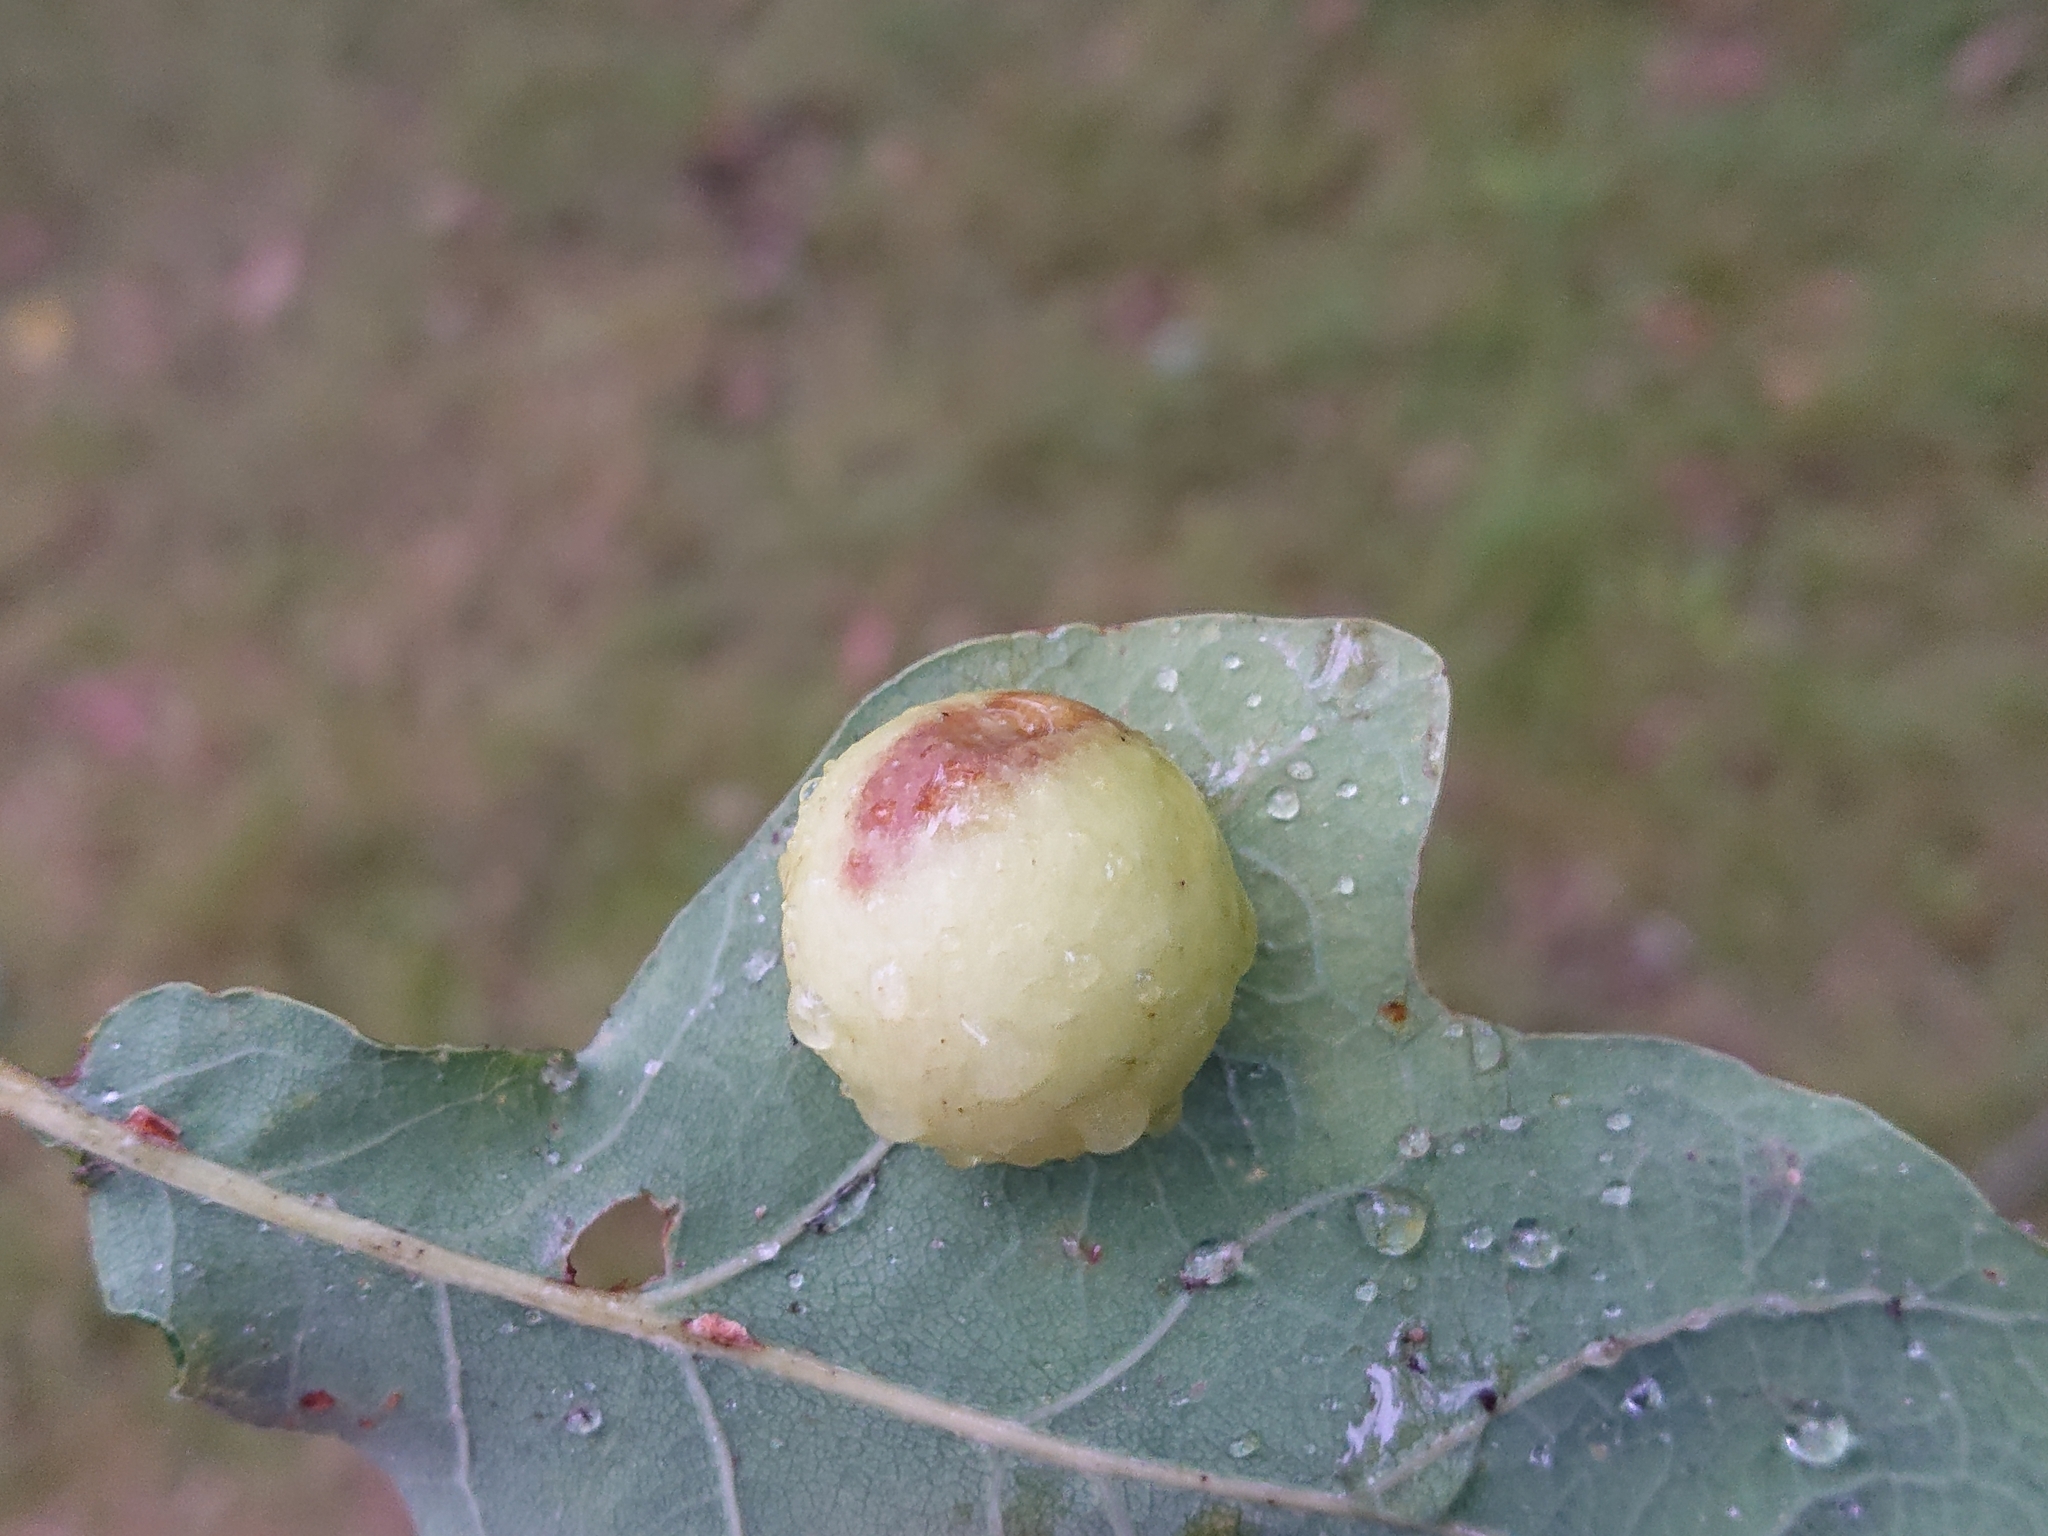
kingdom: Animalia
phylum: Arthropoda
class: Insecta
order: Hymenoptera
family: Cynipidae
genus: Cynips
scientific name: Cynips quercusfolii
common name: Cherry gall
